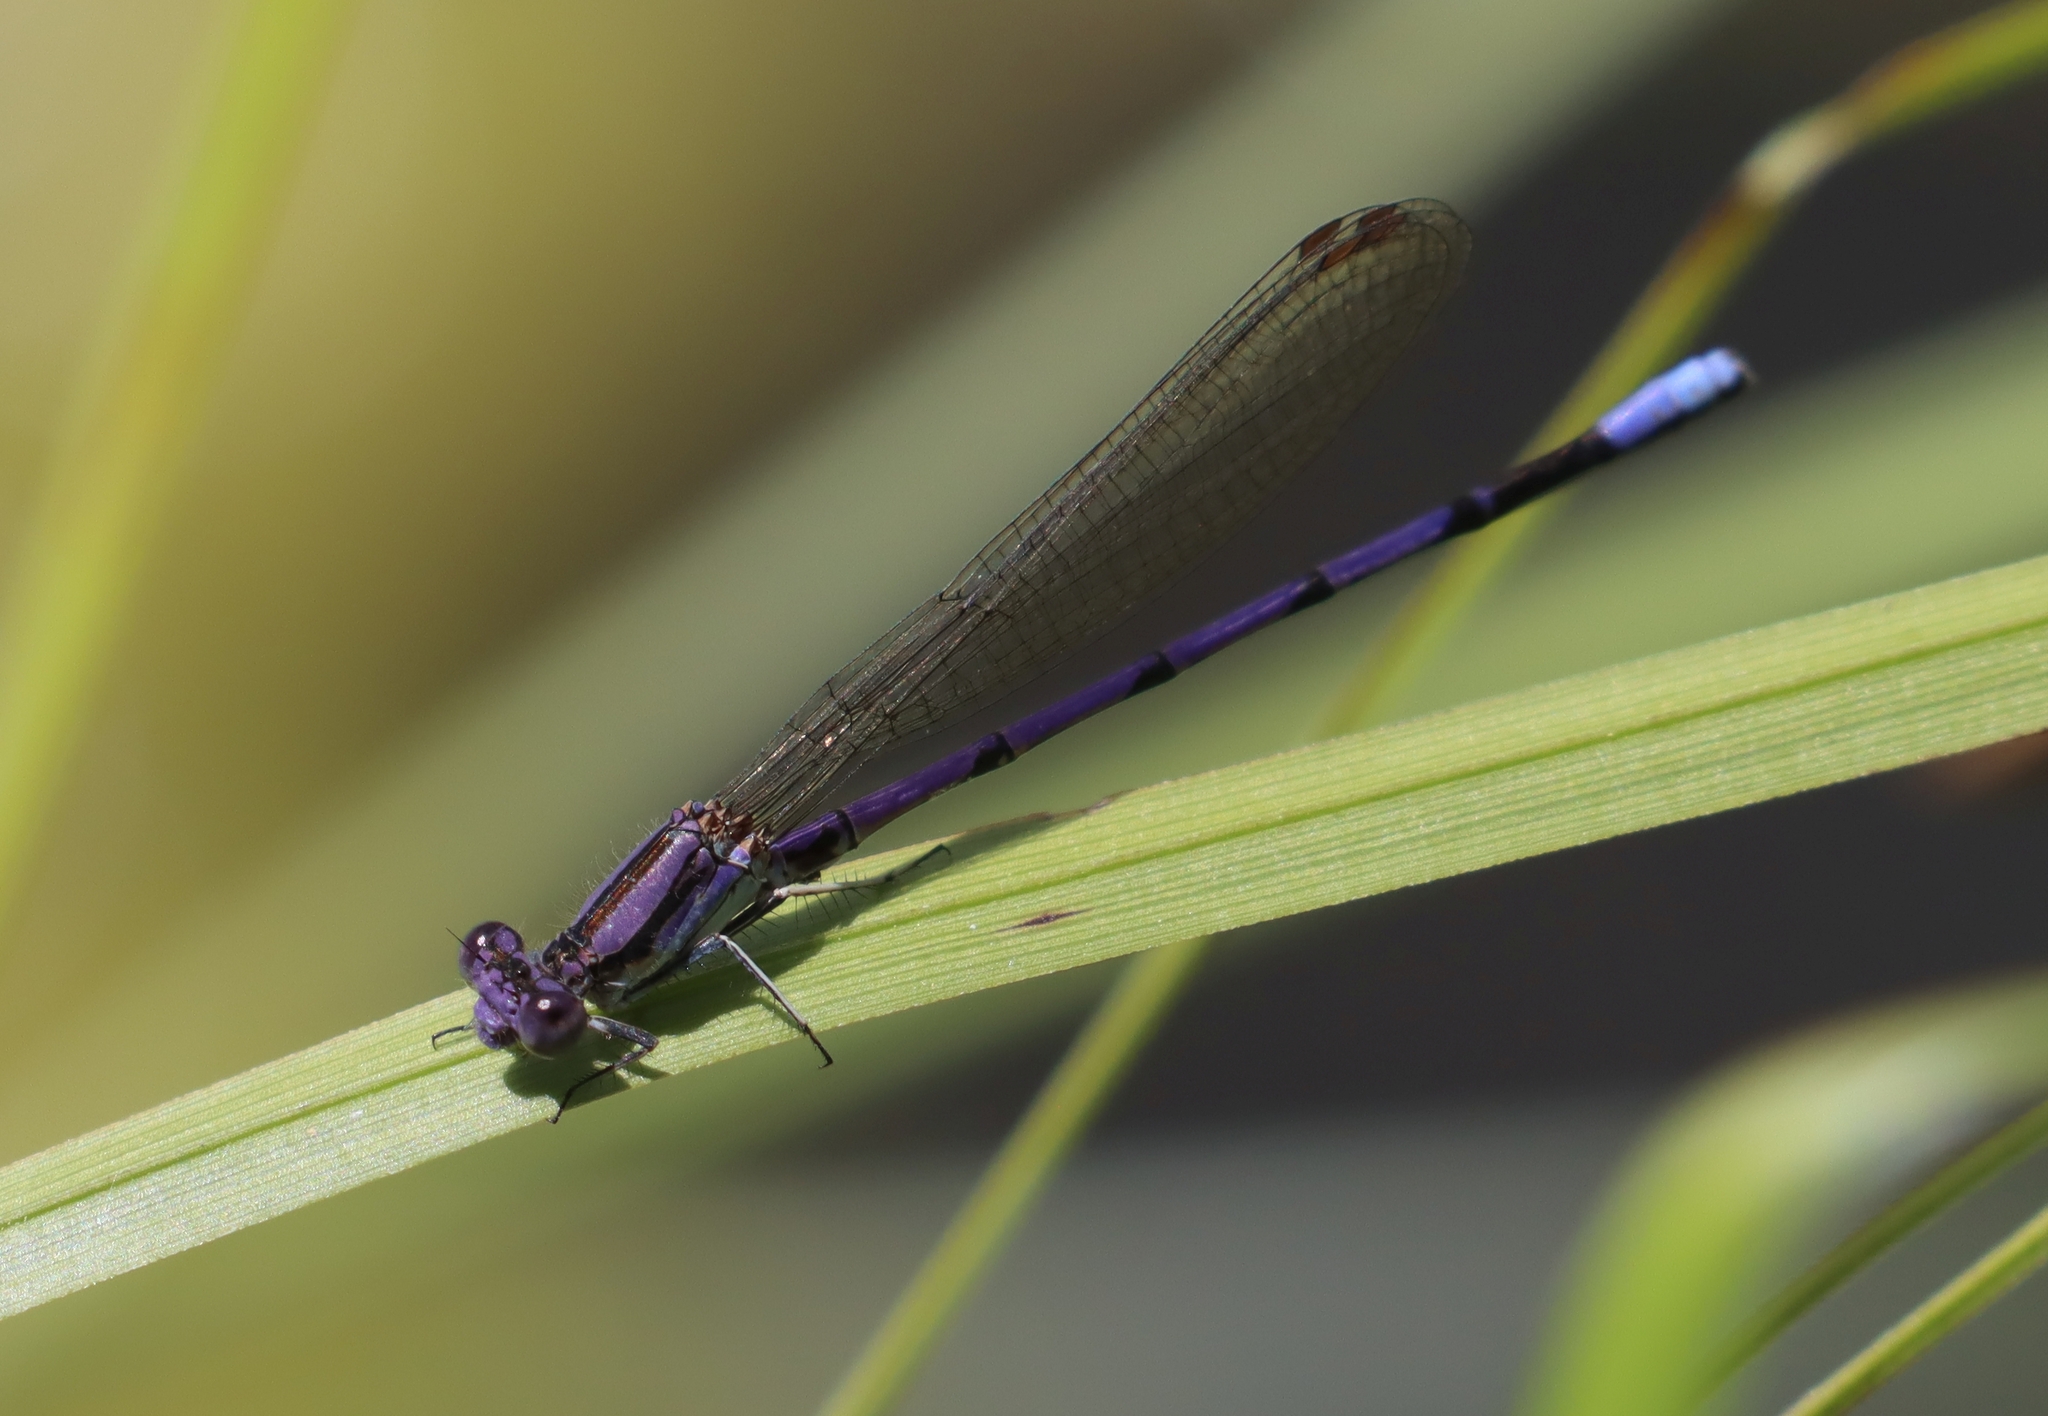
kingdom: Animalia
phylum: Arthropoda
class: Insecta
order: Odonata
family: Coenagrionidae
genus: Argia
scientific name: Argia fumipennis
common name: Variable dancer
